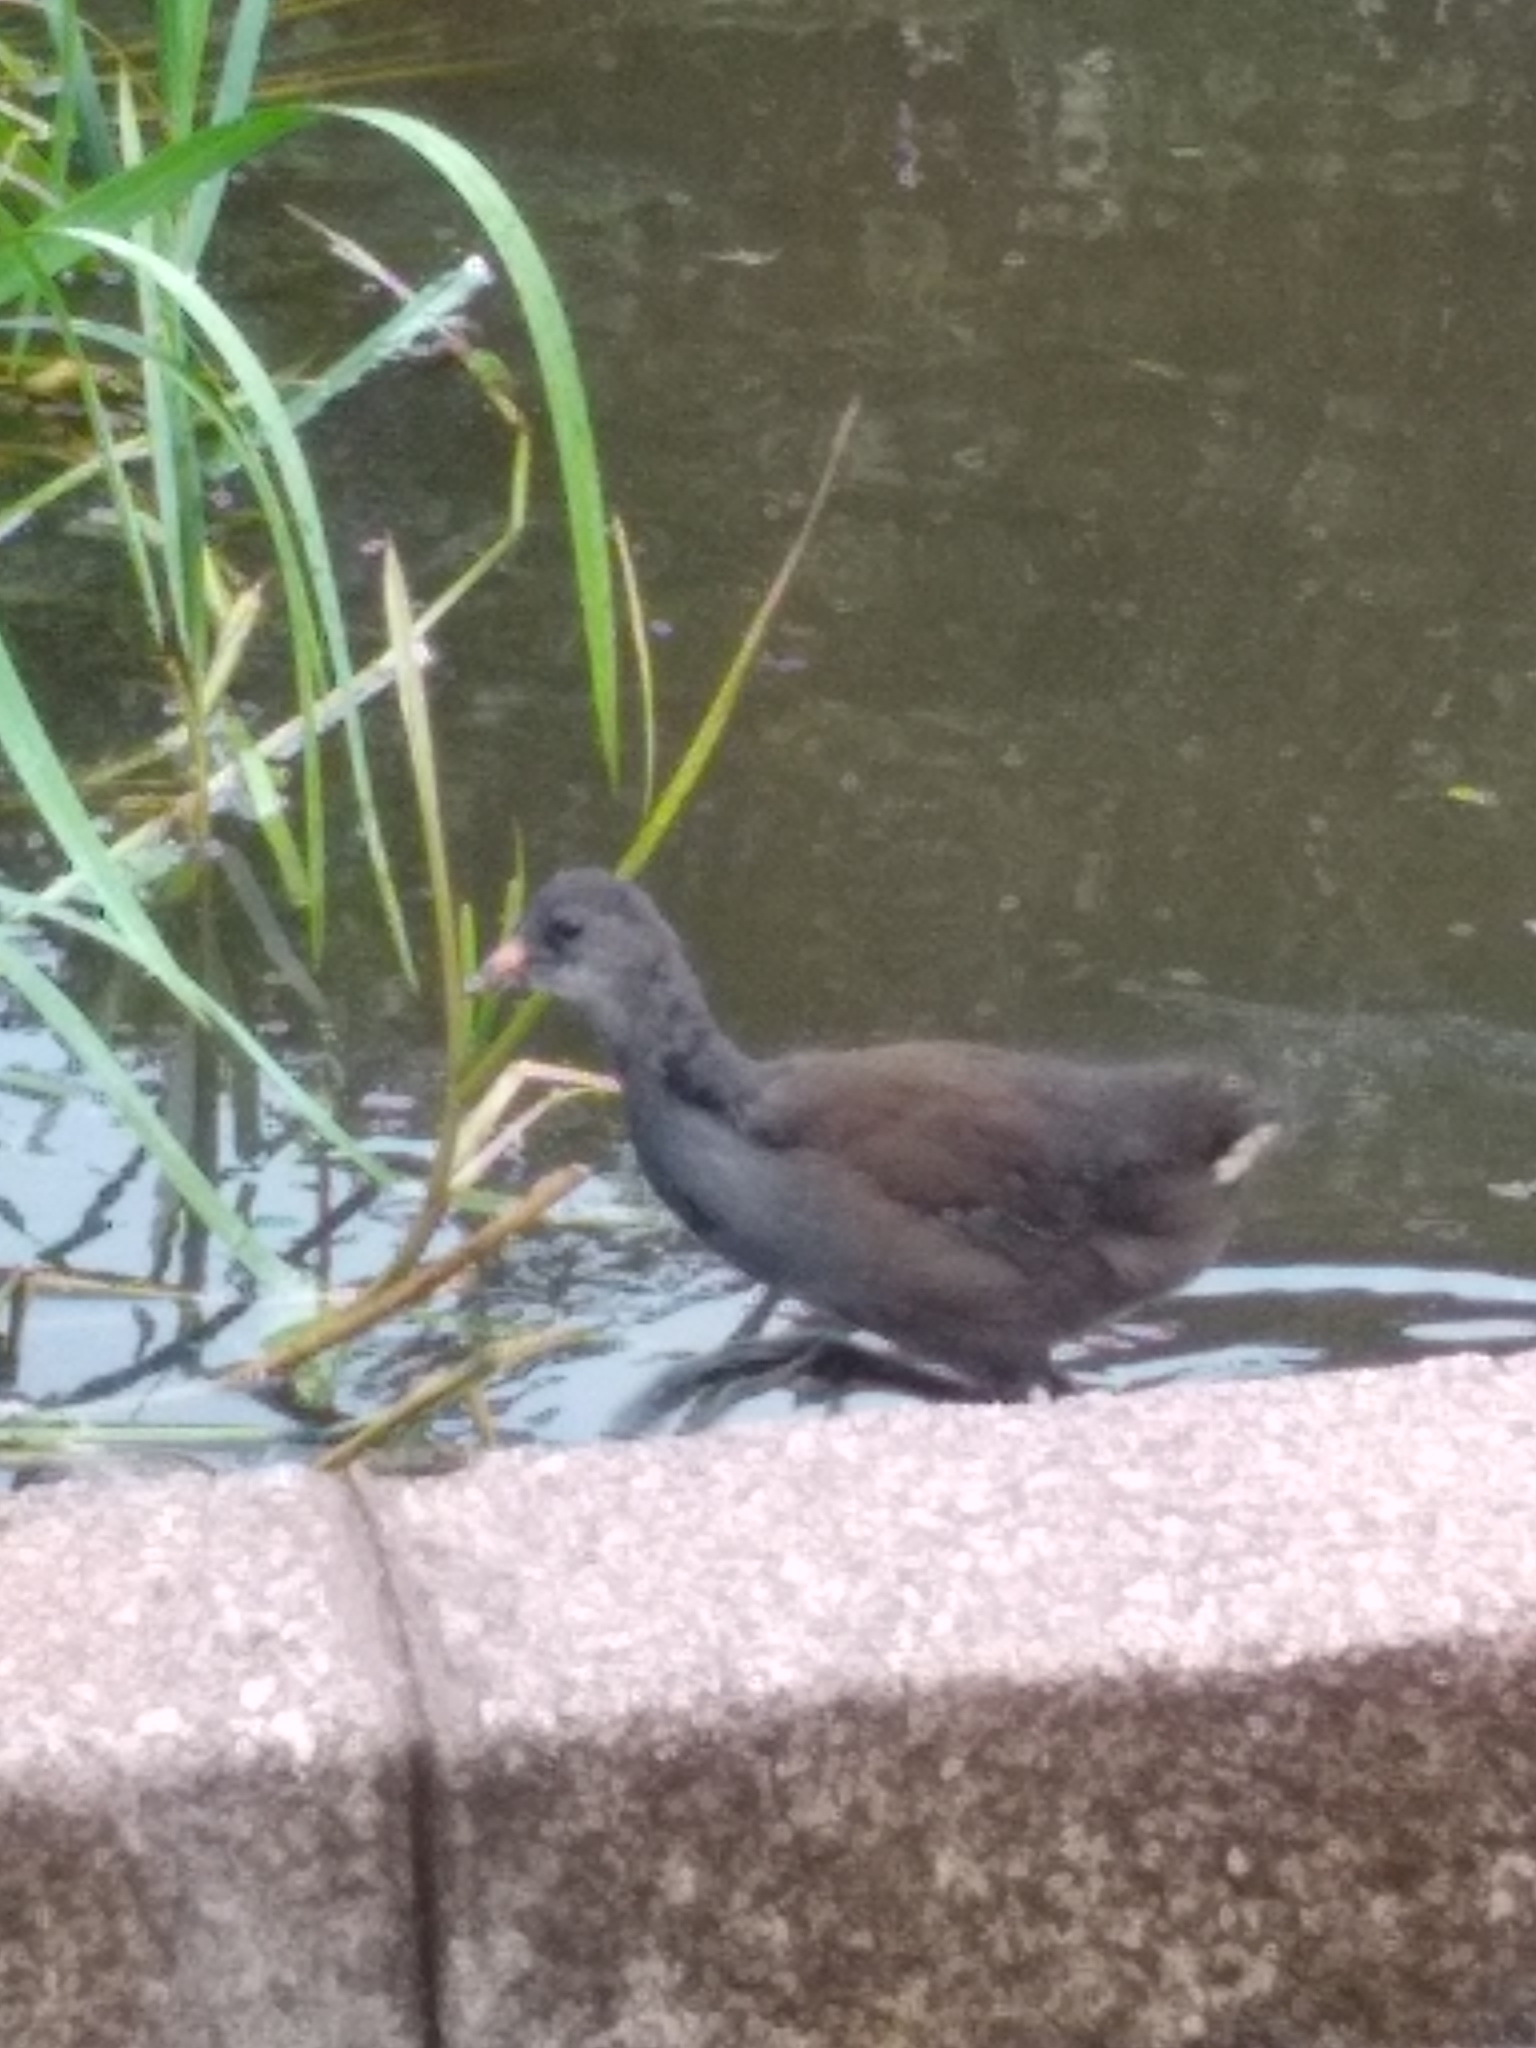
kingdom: Animalia
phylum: Chordata
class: Aves
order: Gruiformes
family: Rallidae
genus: Gallinula
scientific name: Gallinula chloropus
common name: Common moorhen
